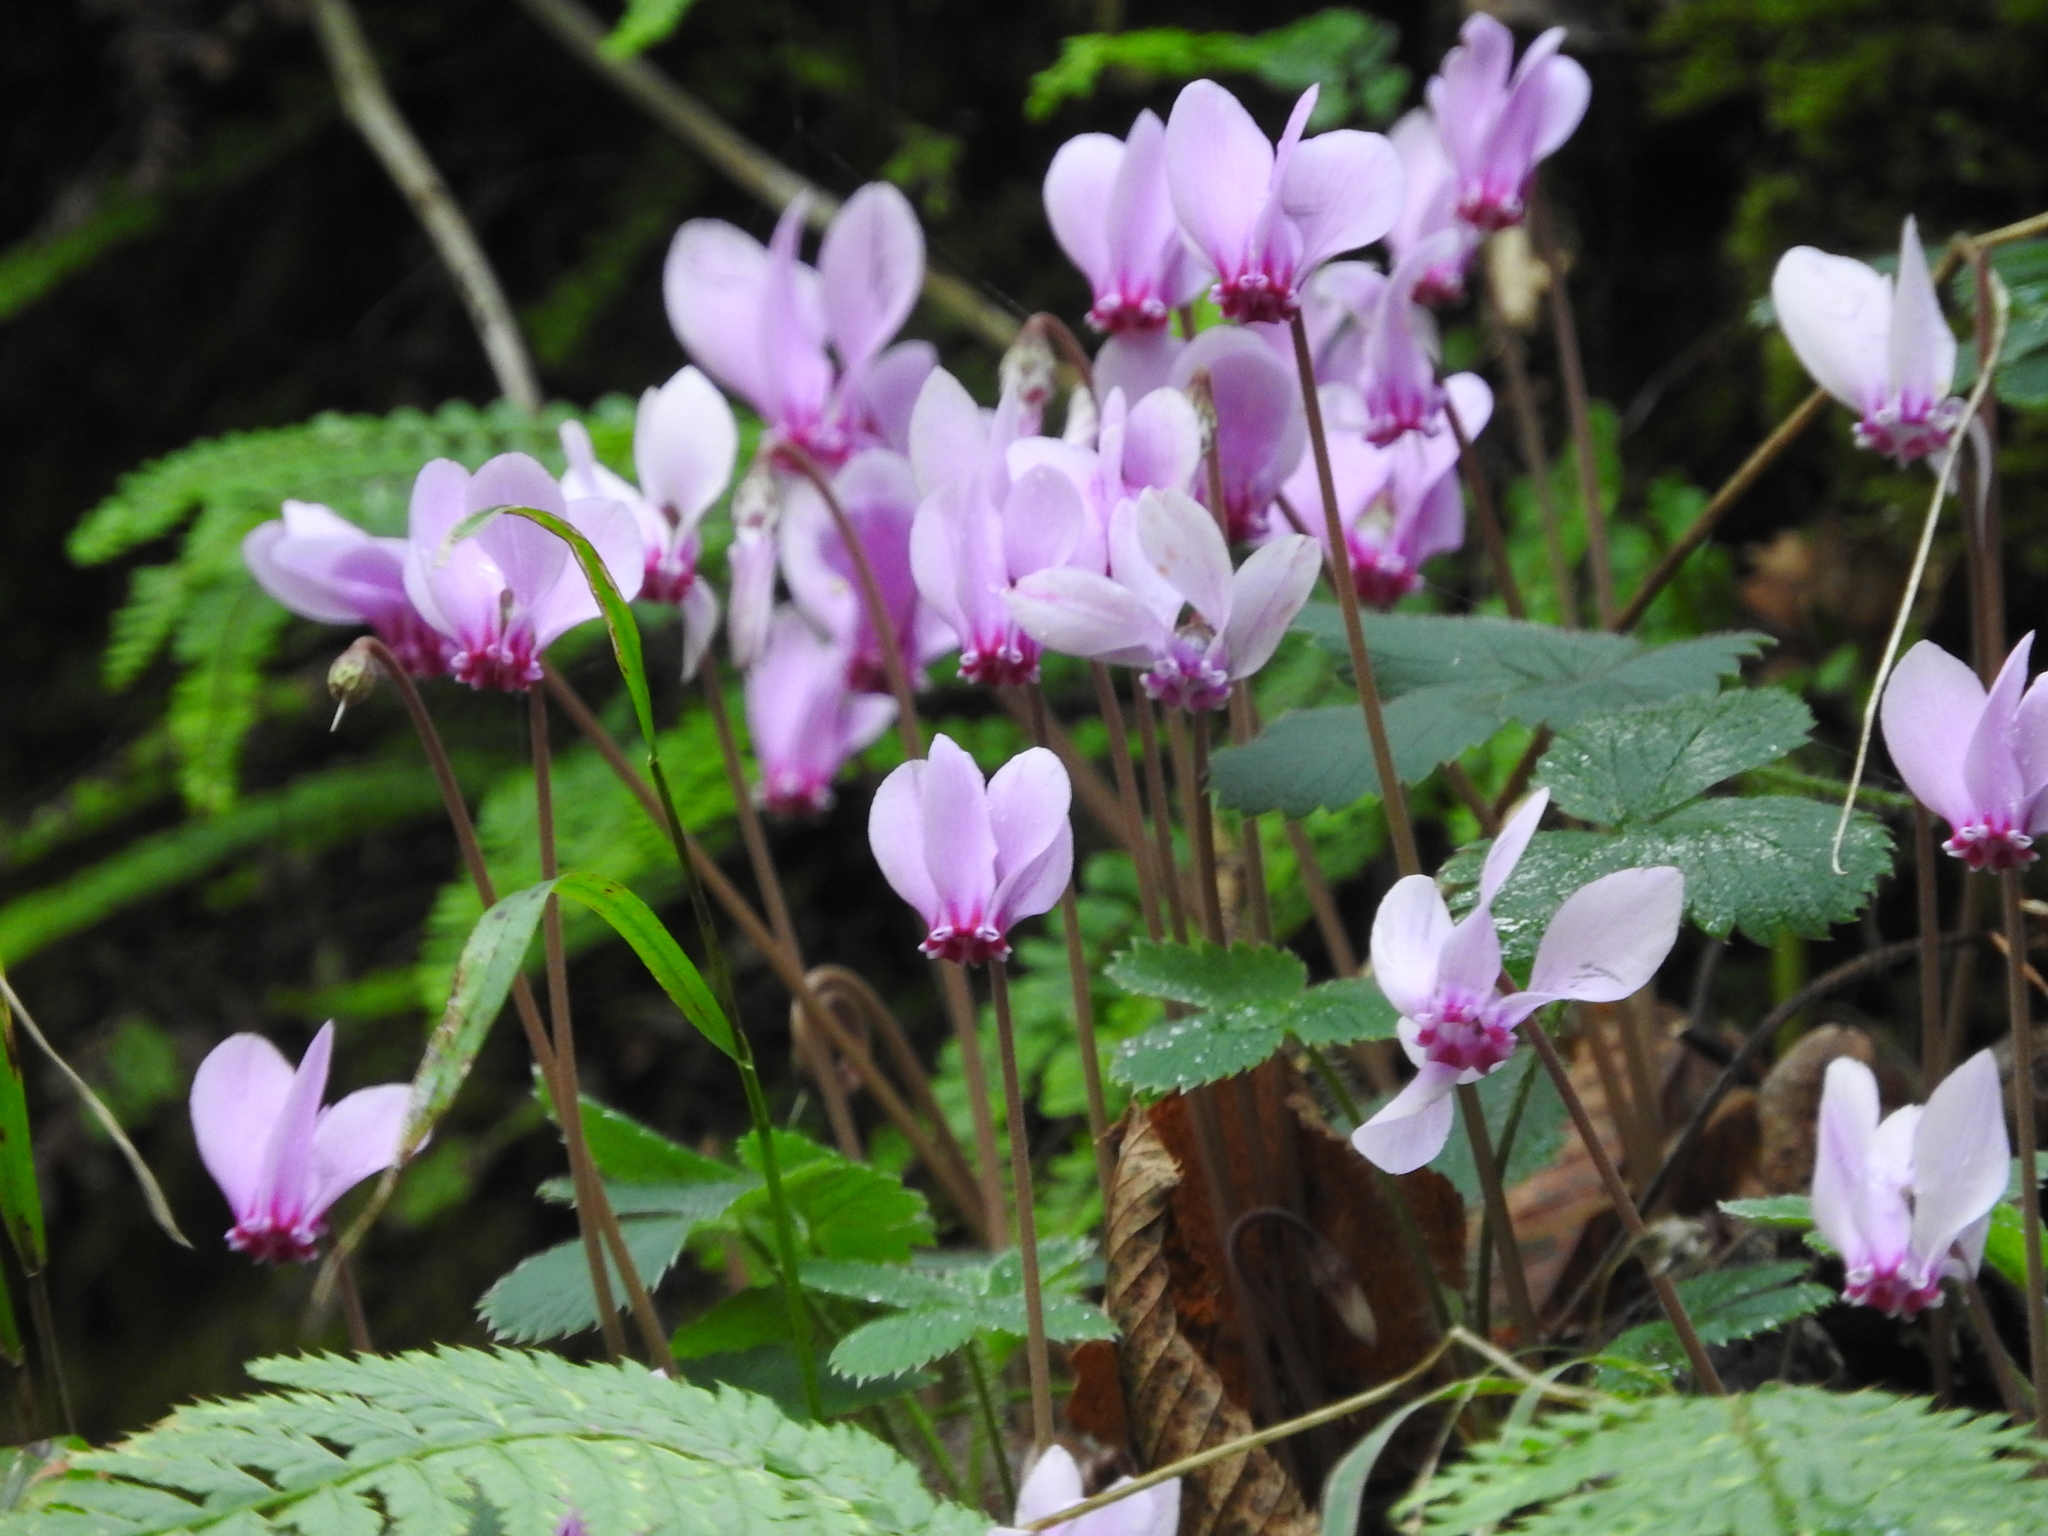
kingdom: Plantae
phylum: Tracheophyta
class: Magnoliopsida
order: Ericales
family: Primulaceae
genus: Cyclamen
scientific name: Cyclamen hederifolium
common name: Sowbread
